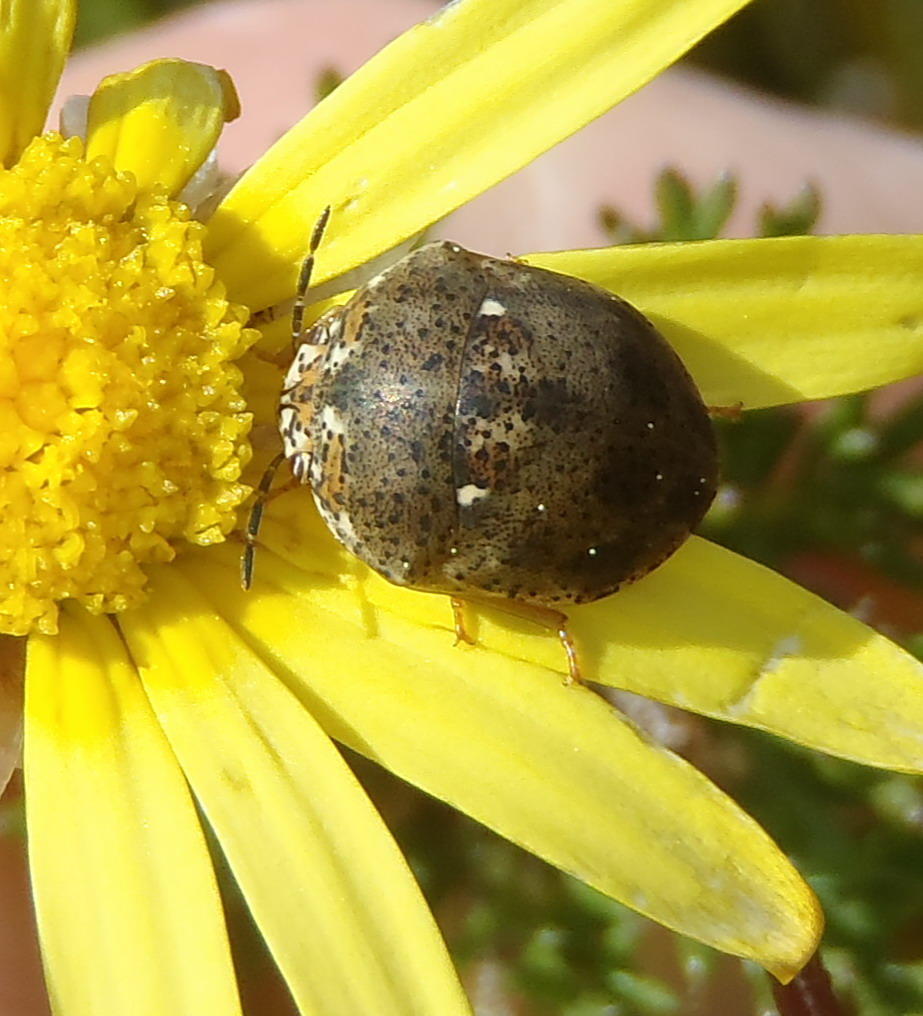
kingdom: Animalia
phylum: Arthropoda
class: Insecta
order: Hemiptera
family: Scutelleridae
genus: Sphaerocoris
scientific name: Sphaerocoris
